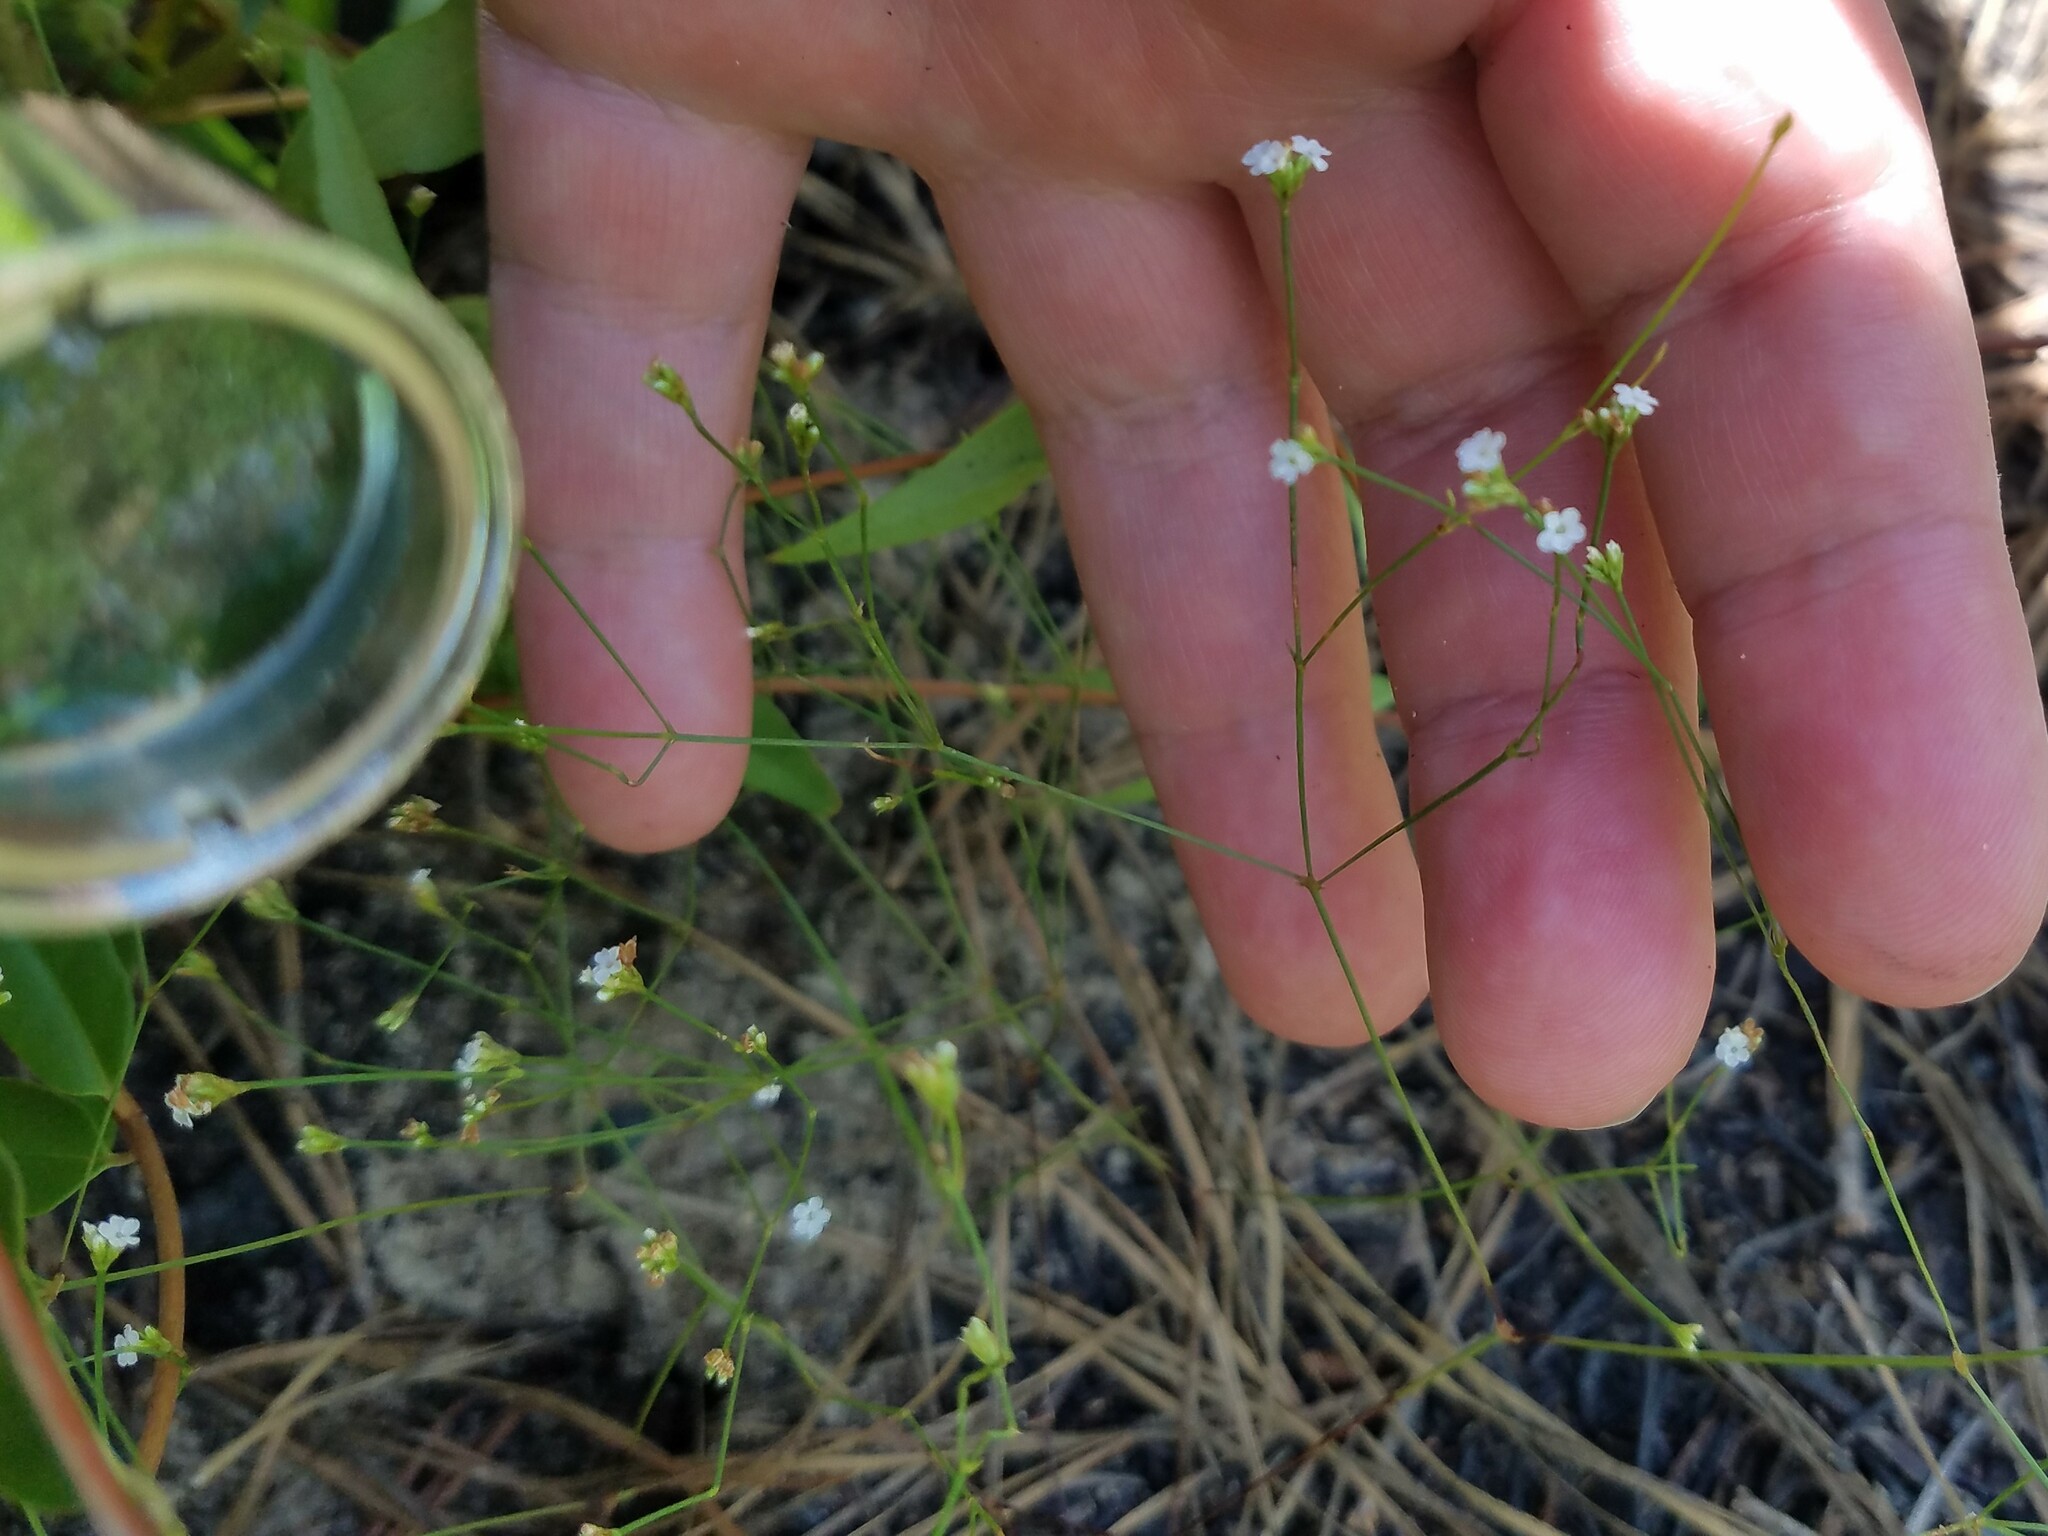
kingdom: Plantae
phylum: Tracheophyta
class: Magnoliopsida
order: Caryophyllales
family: Caryophyllaceae
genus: Stipulicida
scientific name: Stipulicida setacea
